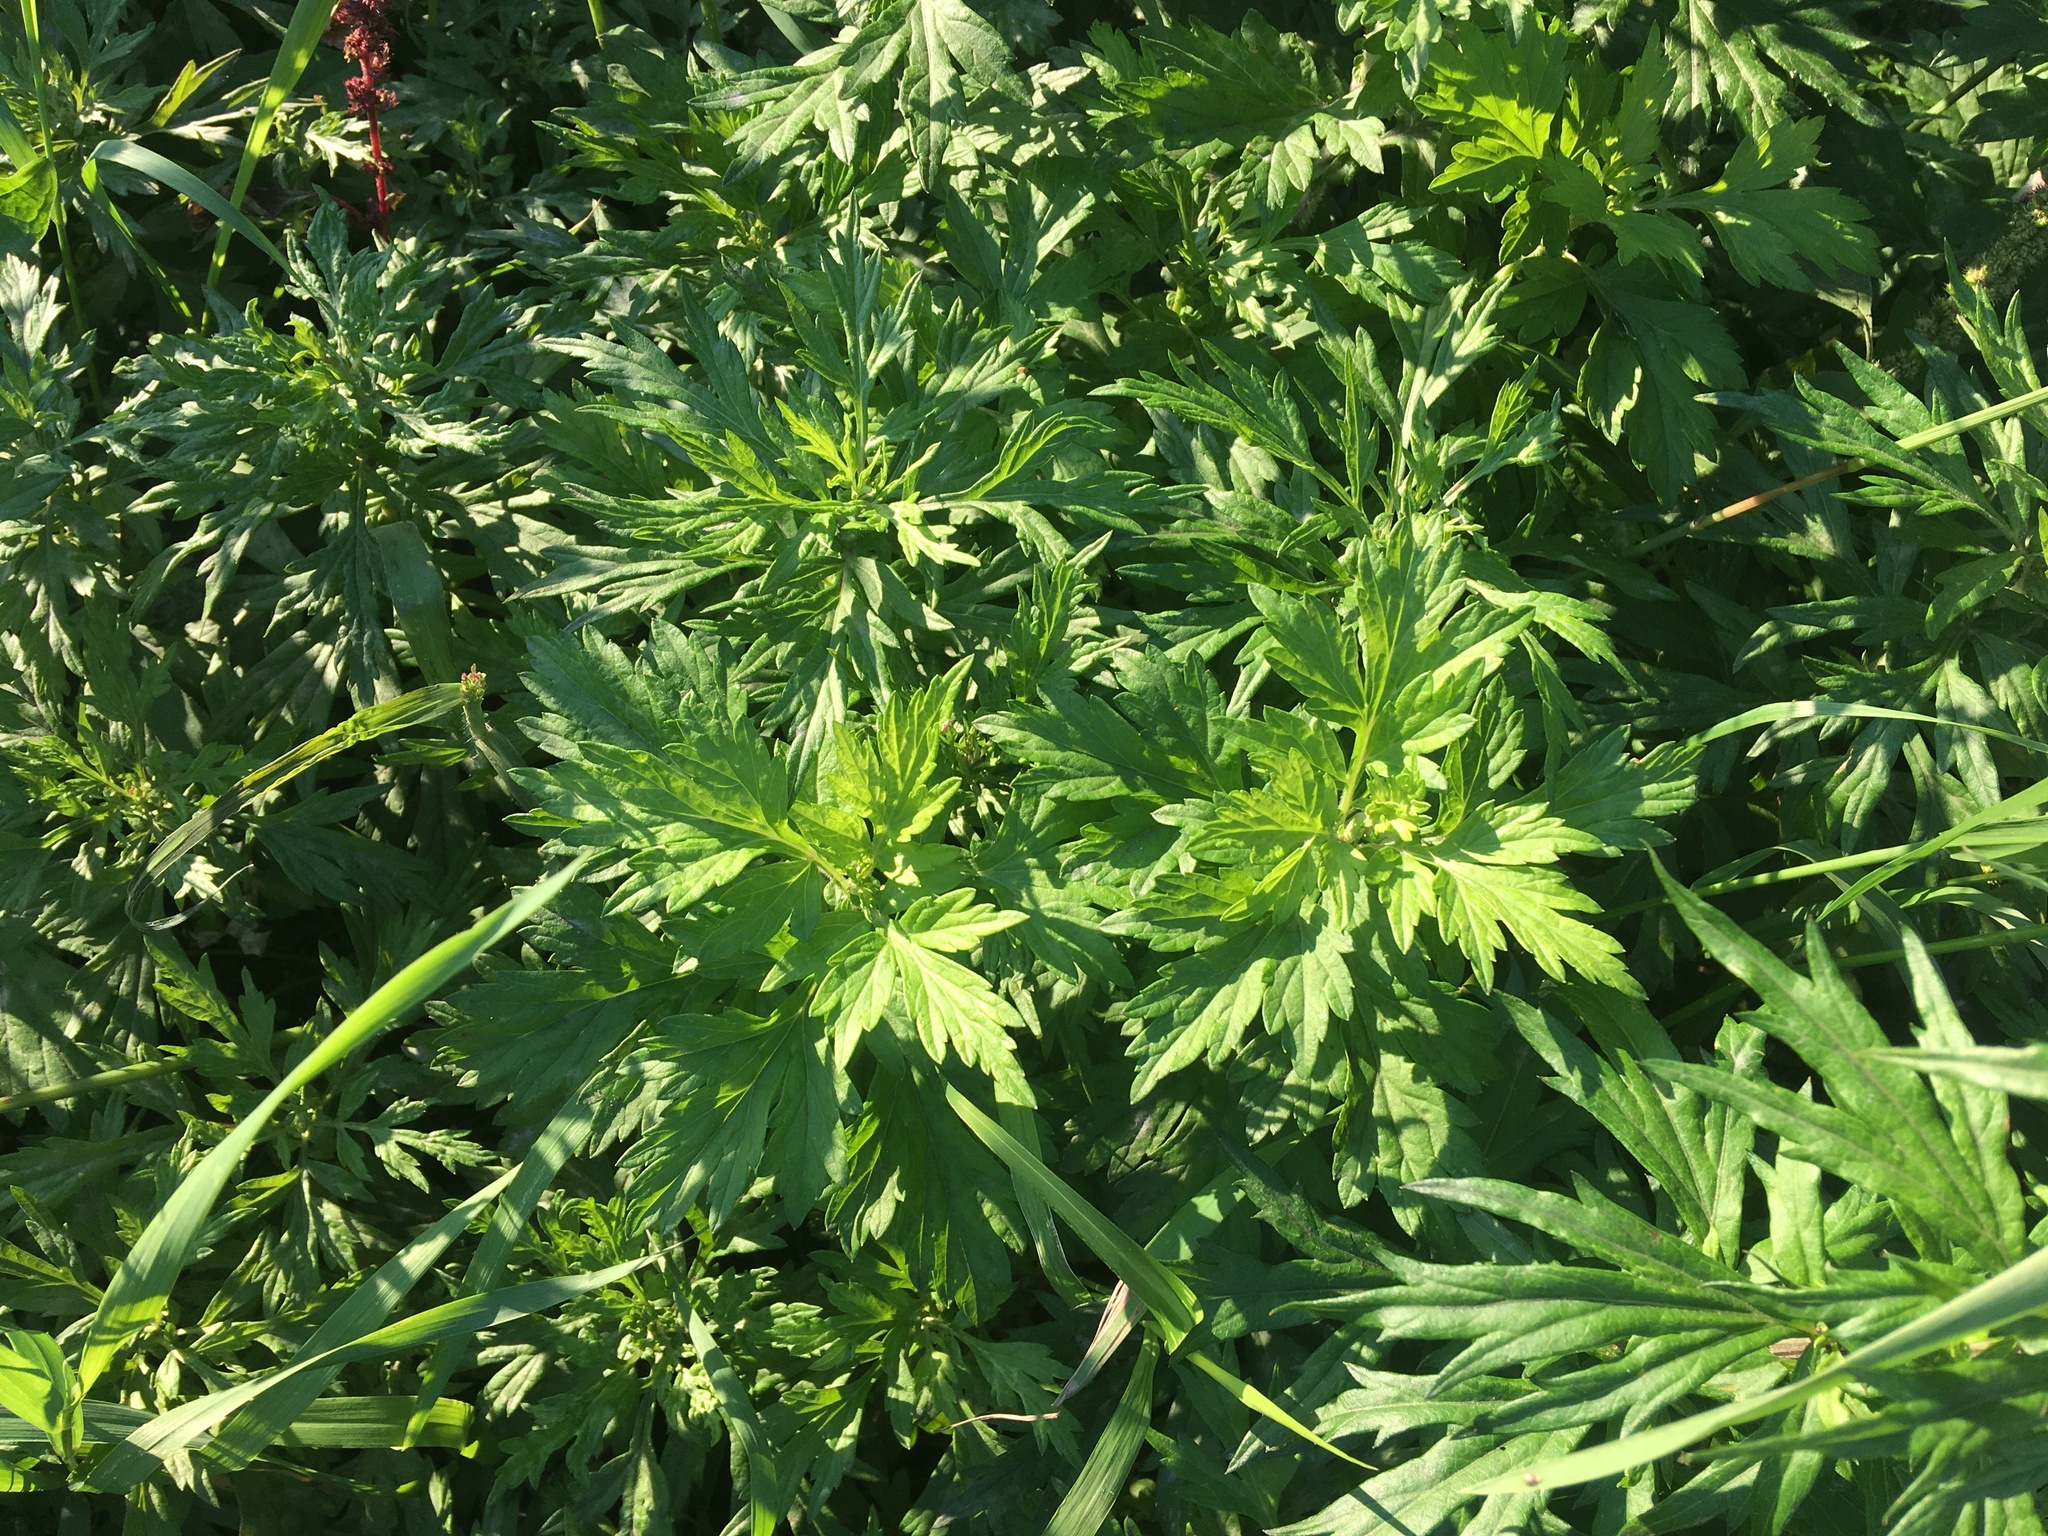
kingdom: Plantae
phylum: Tracheophyta
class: Magnoliopsida
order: Asterales
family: Asteraceae
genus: Artemisia
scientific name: Artemisia vulgaris
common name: Mugwort
